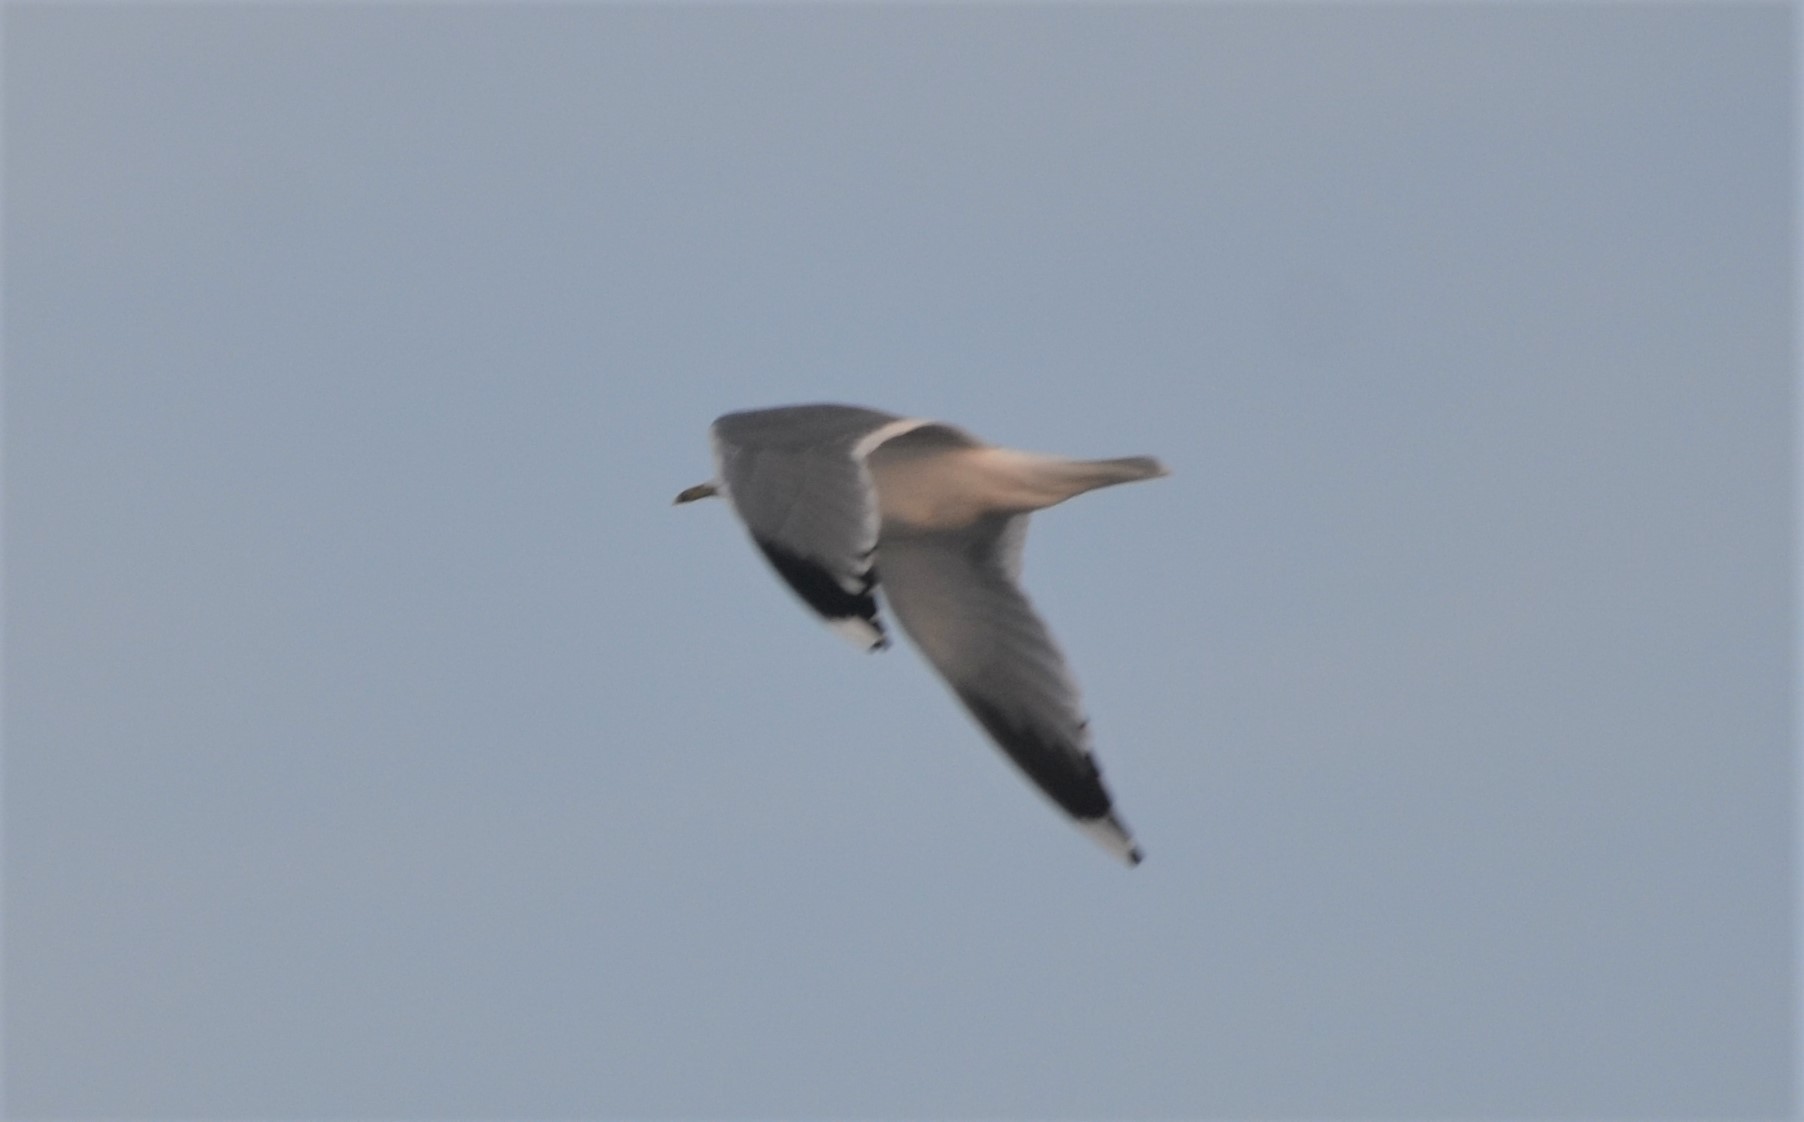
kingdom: Animalia
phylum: Chordata
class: Aves
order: Charadriiformes
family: Laridae
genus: Larus
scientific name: Larus canus
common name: Mew gull
